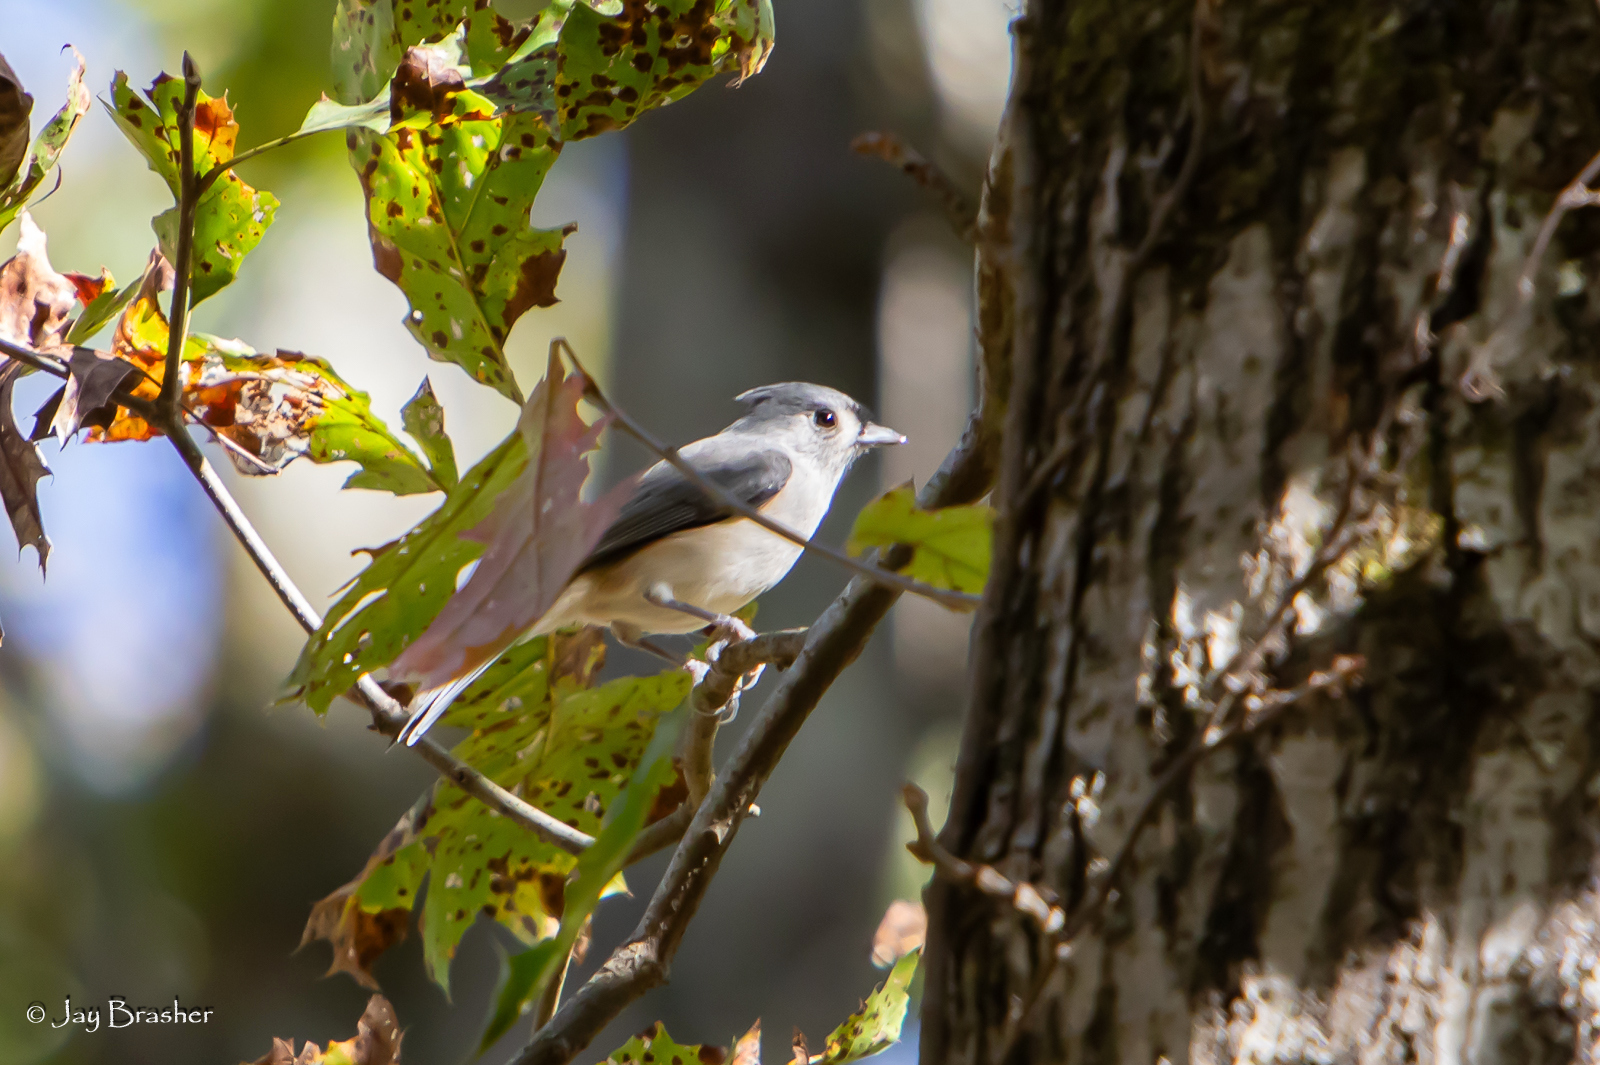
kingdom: Animalia
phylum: Chordata
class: Aves
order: Passeriformes
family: Paridae
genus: Baeolophus
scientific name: Baeolophus bicolor
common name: Tufted titmouse
